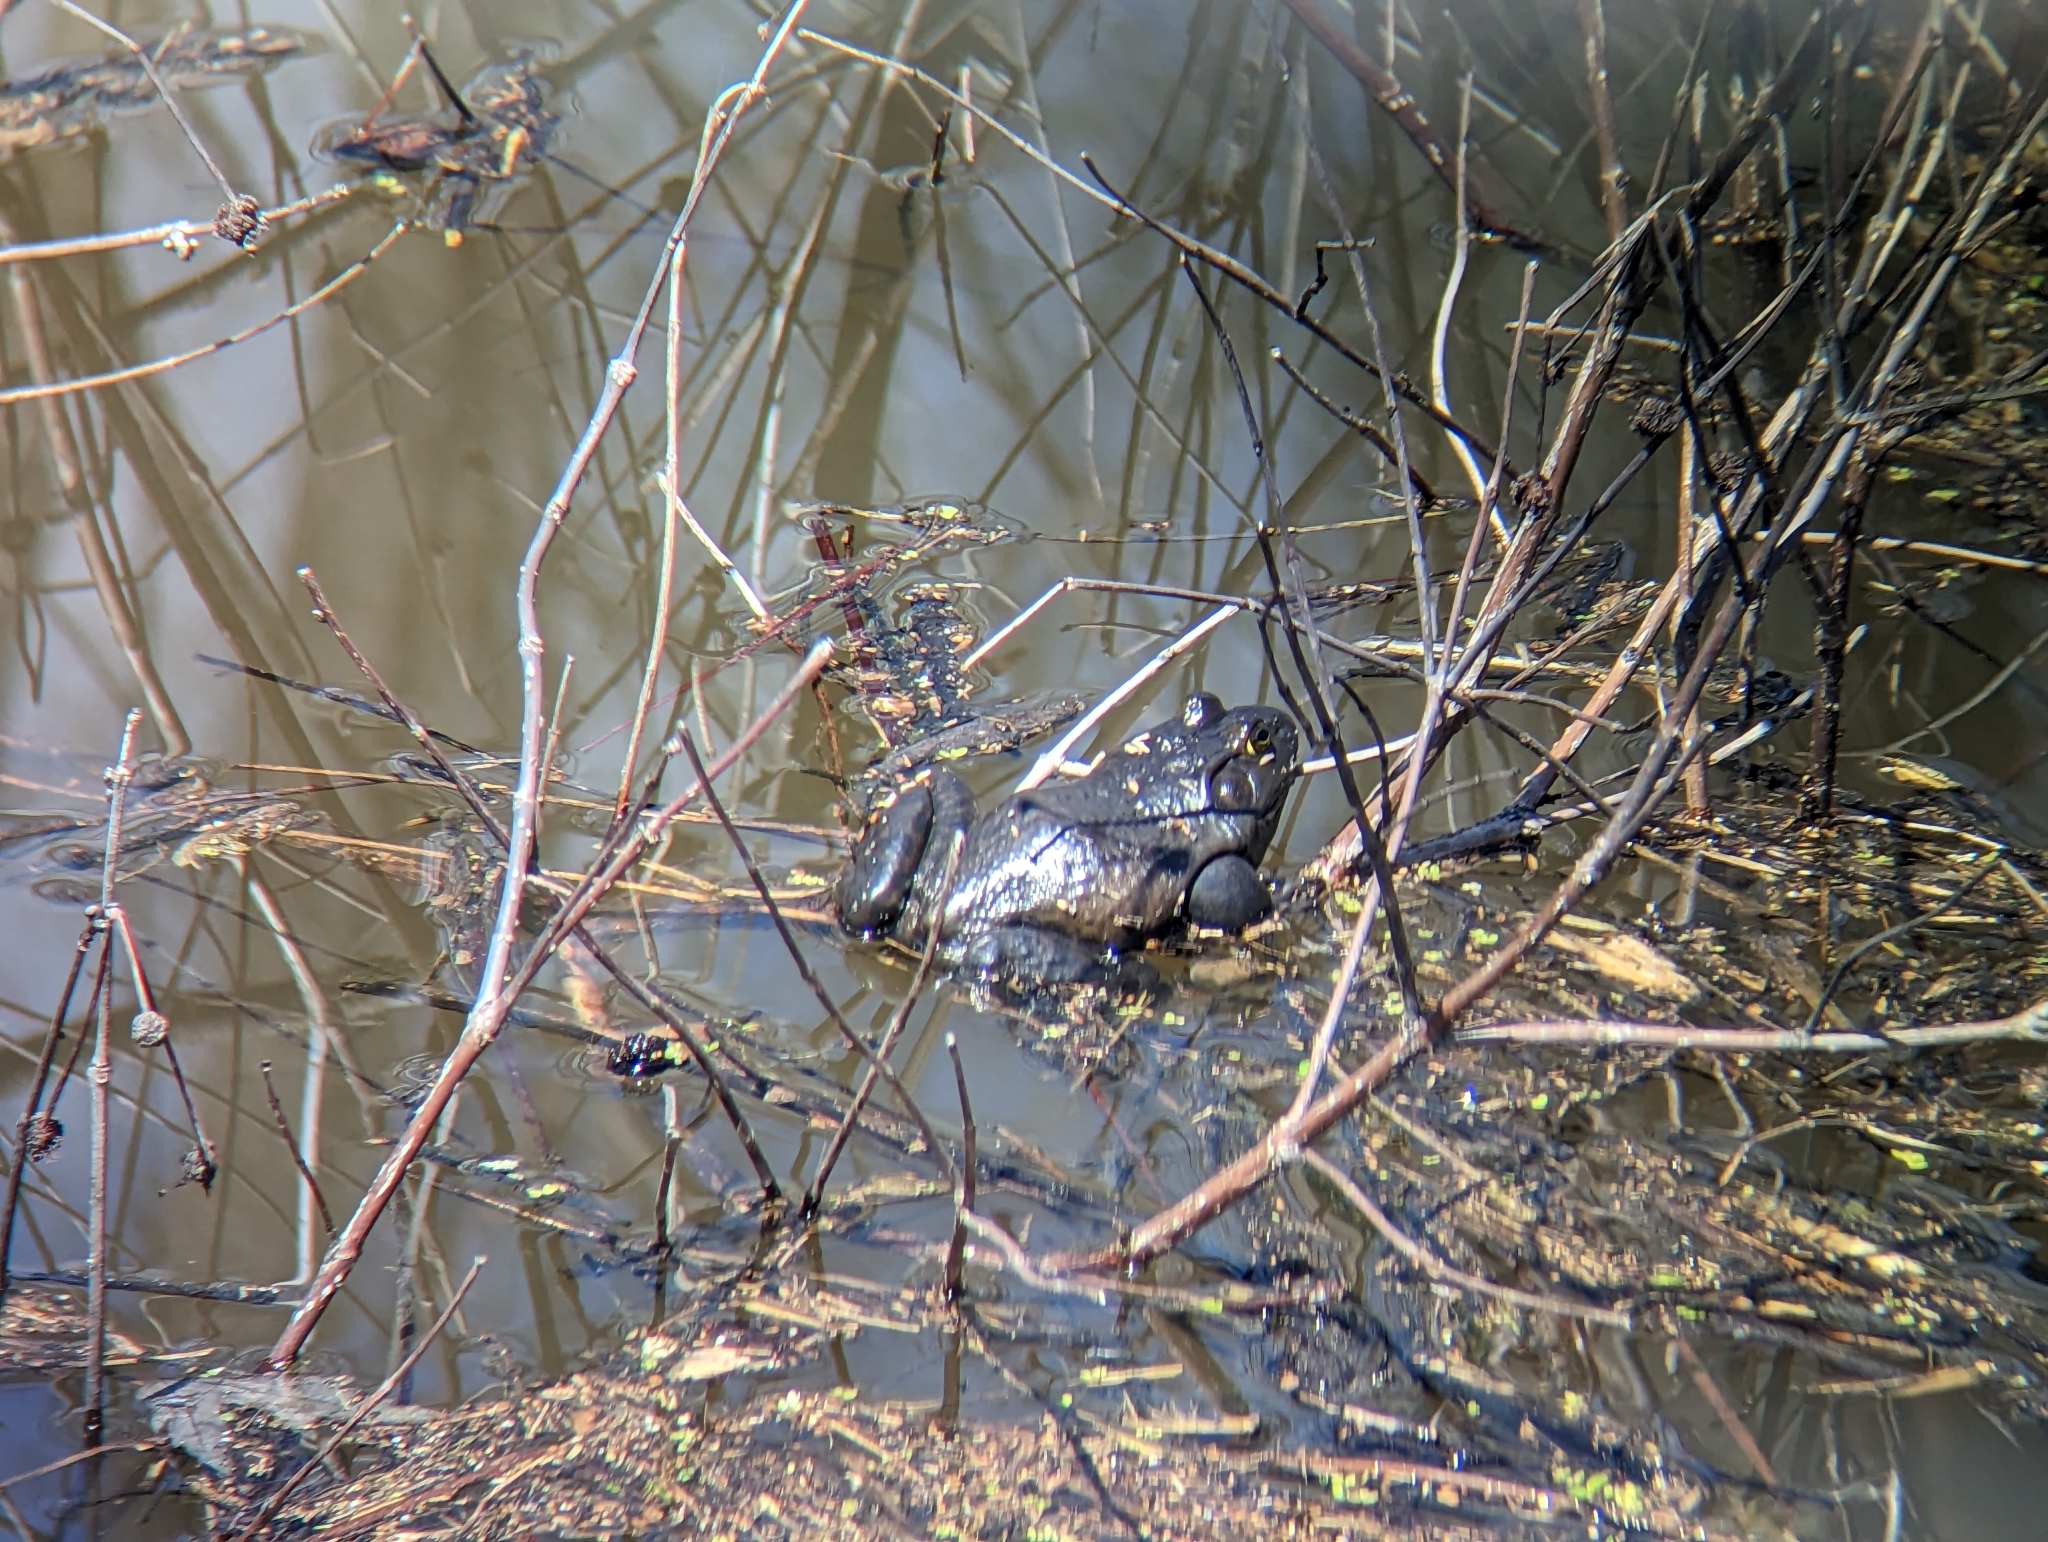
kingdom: Animalia
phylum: Chordata
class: Amphibia
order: Anura
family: Ranidae
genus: Lithobates
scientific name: Lithobates catesbeianus
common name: American bullfrog
